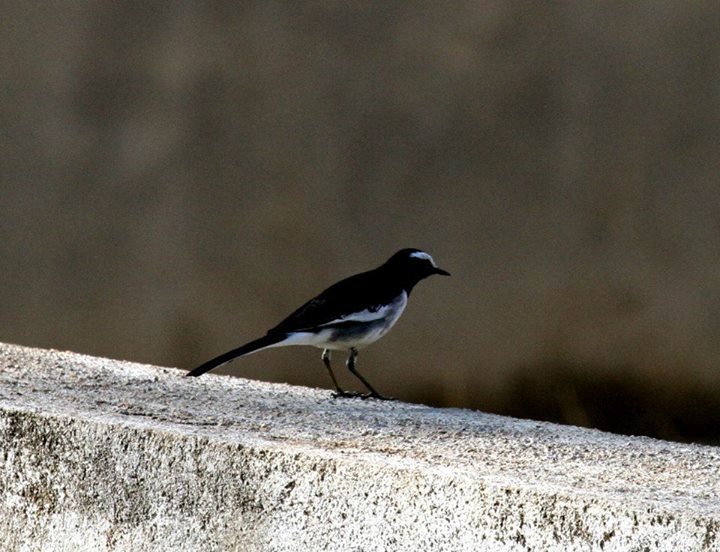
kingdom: Animalia
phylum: Chordata
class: Aves
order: Passeriformes
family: Motacillidae
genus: Motacilla
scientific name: Motacilla maderaspatensis
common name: White-browed wagtail
